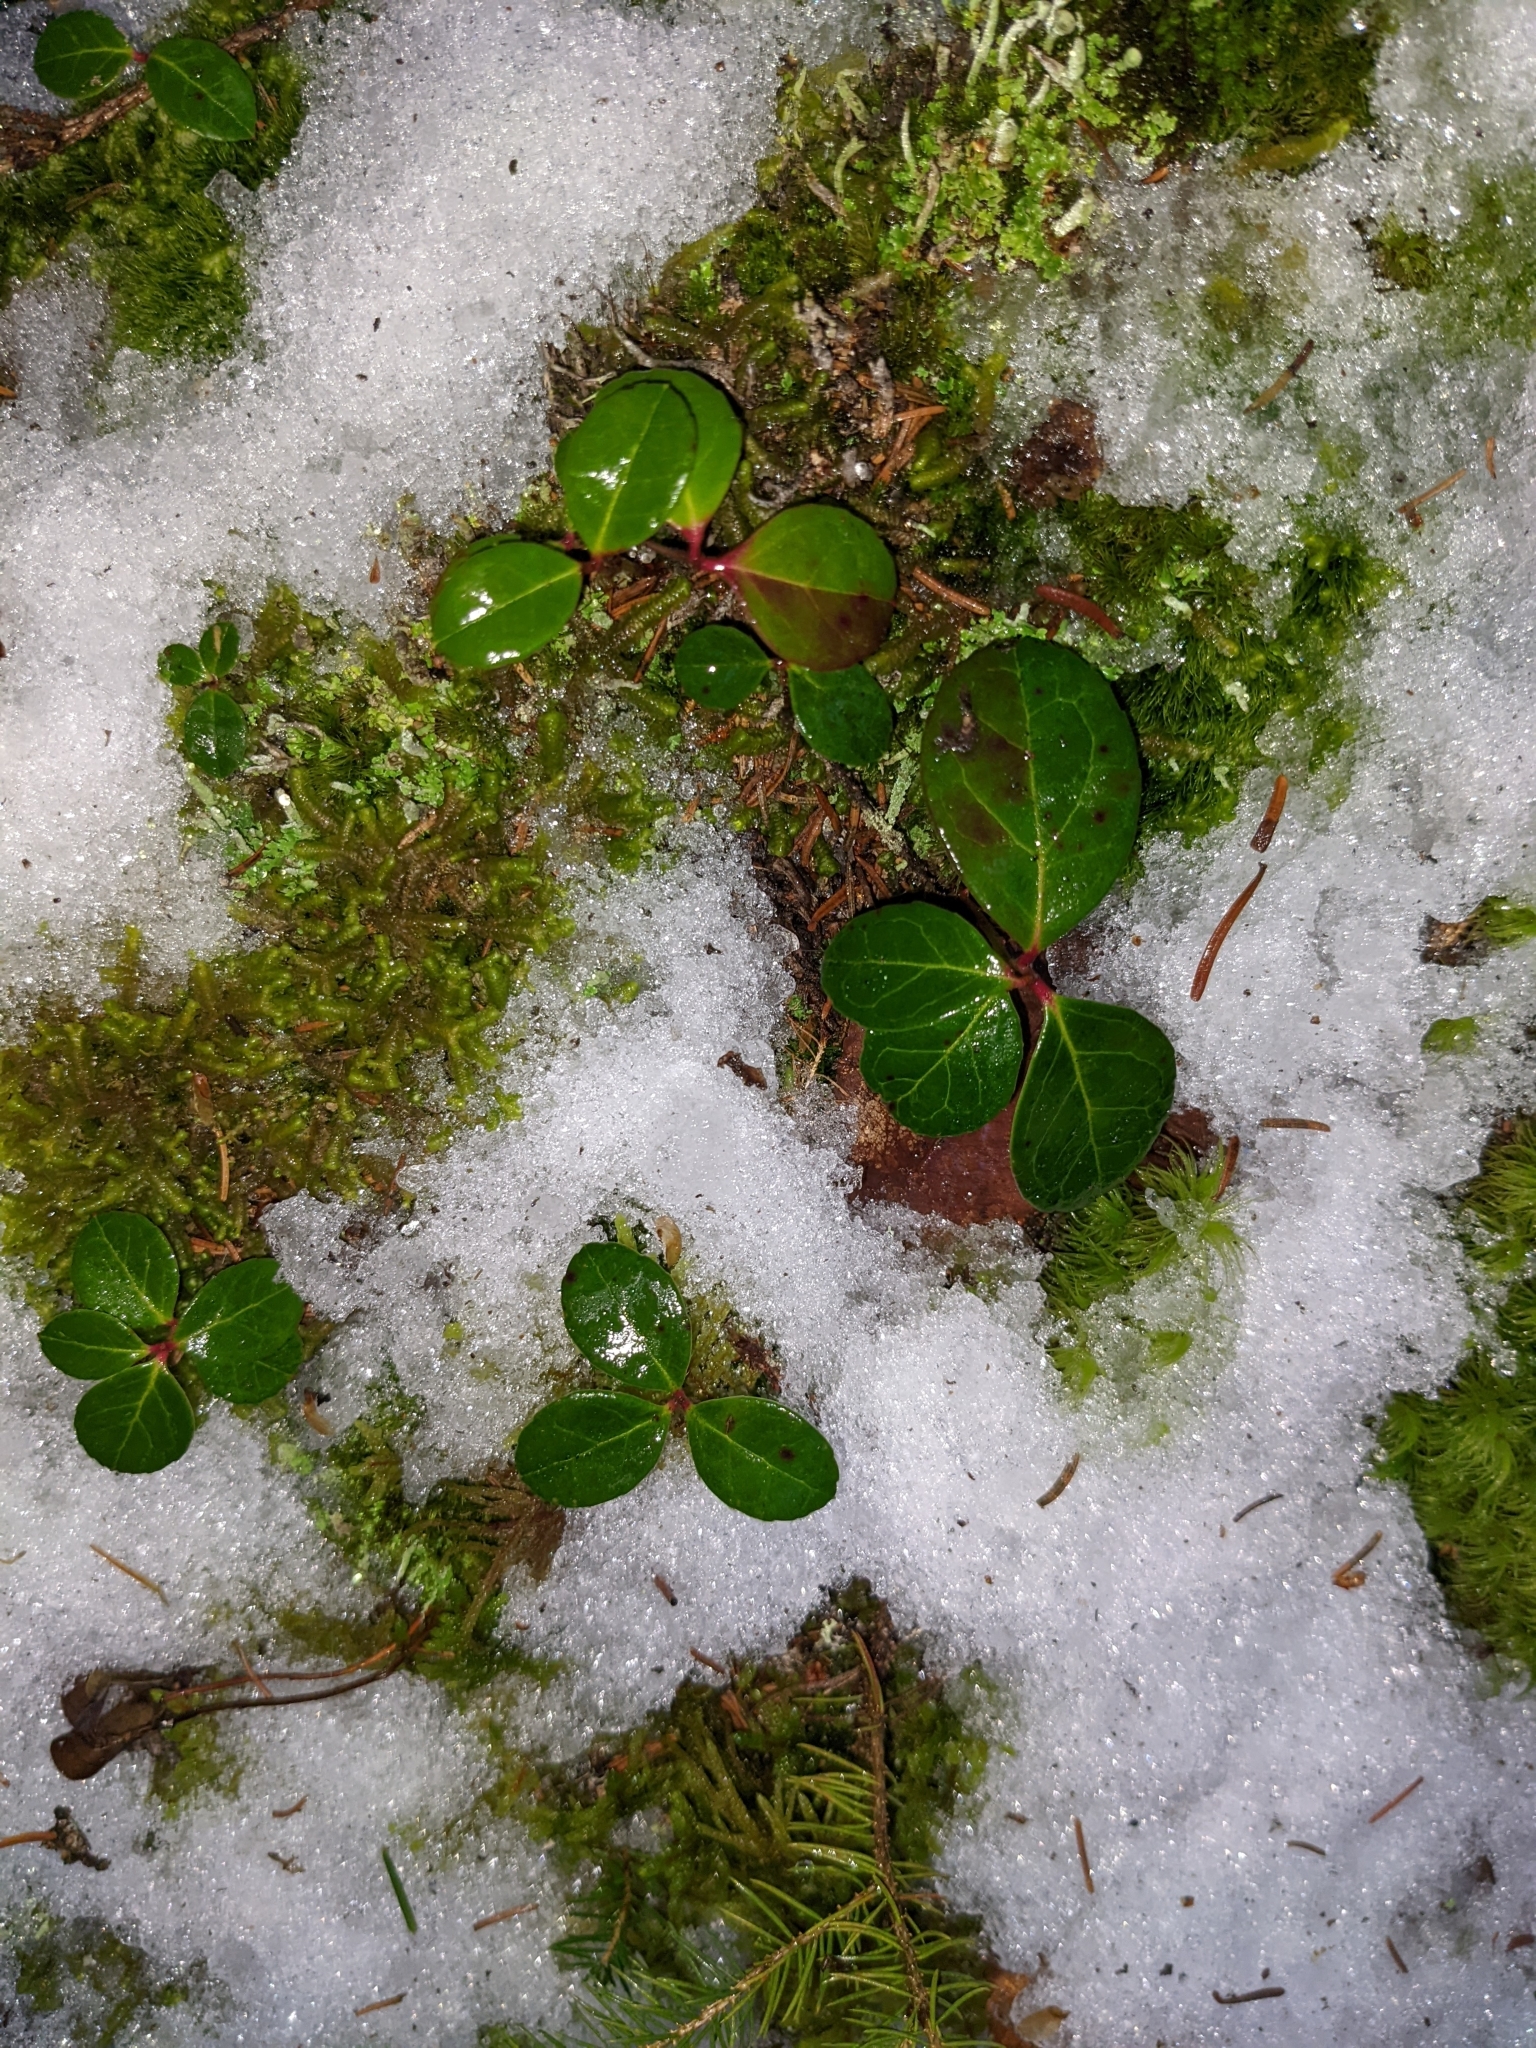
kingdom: Plantae
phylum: Tracheophyta
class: Magnoliopsida
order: Ericales
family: Ericaceae
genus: Gaultheria
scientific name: Gaultheria procumbens
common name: Checkerberry
